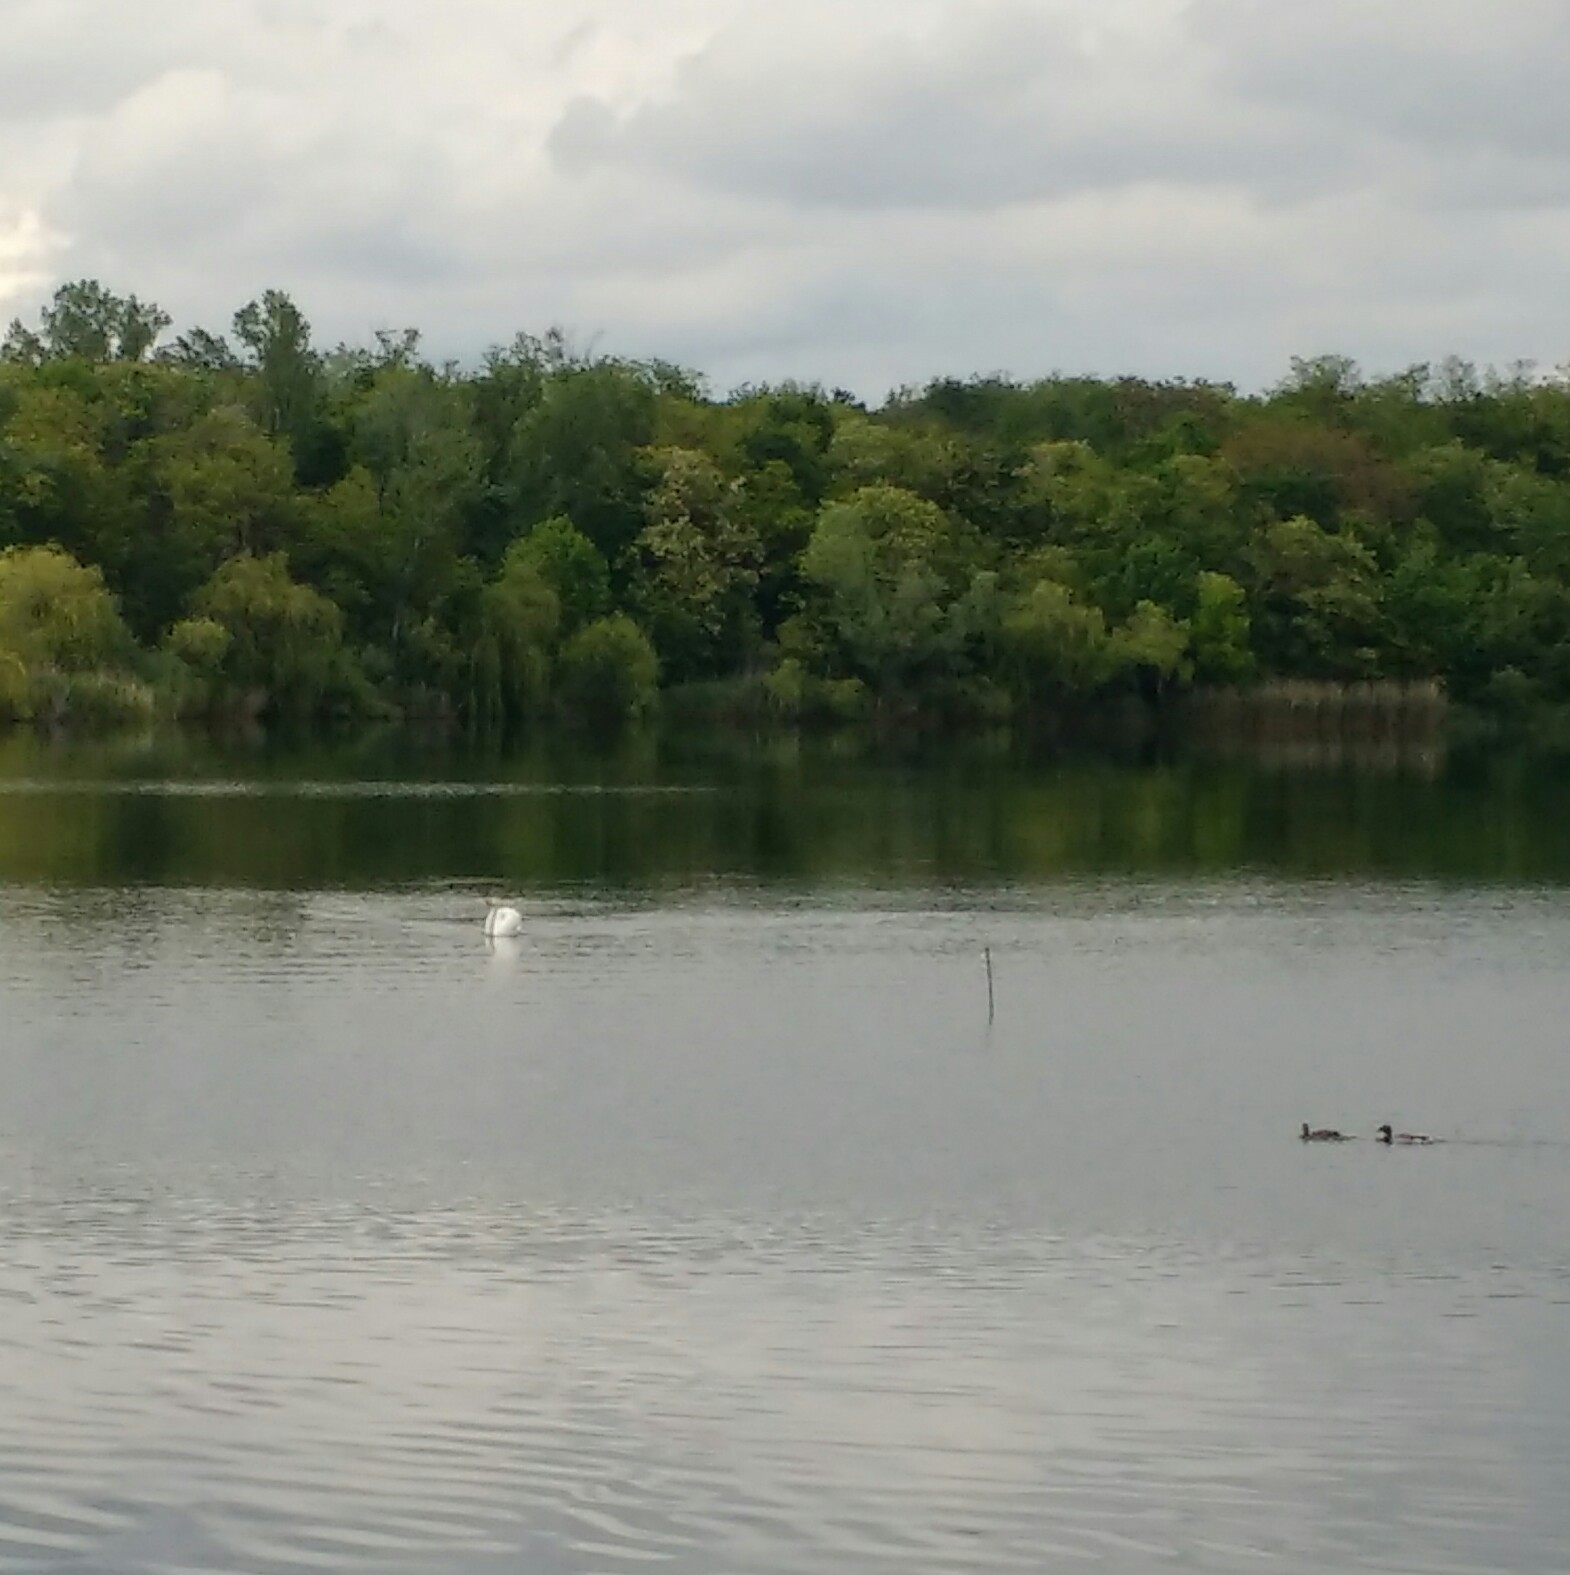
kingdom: Animalia
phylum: Chordata
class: Aves
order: Anseriformes
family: Anatidae
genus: Cygnus
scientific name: Cygnus olor
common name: Mute swan
